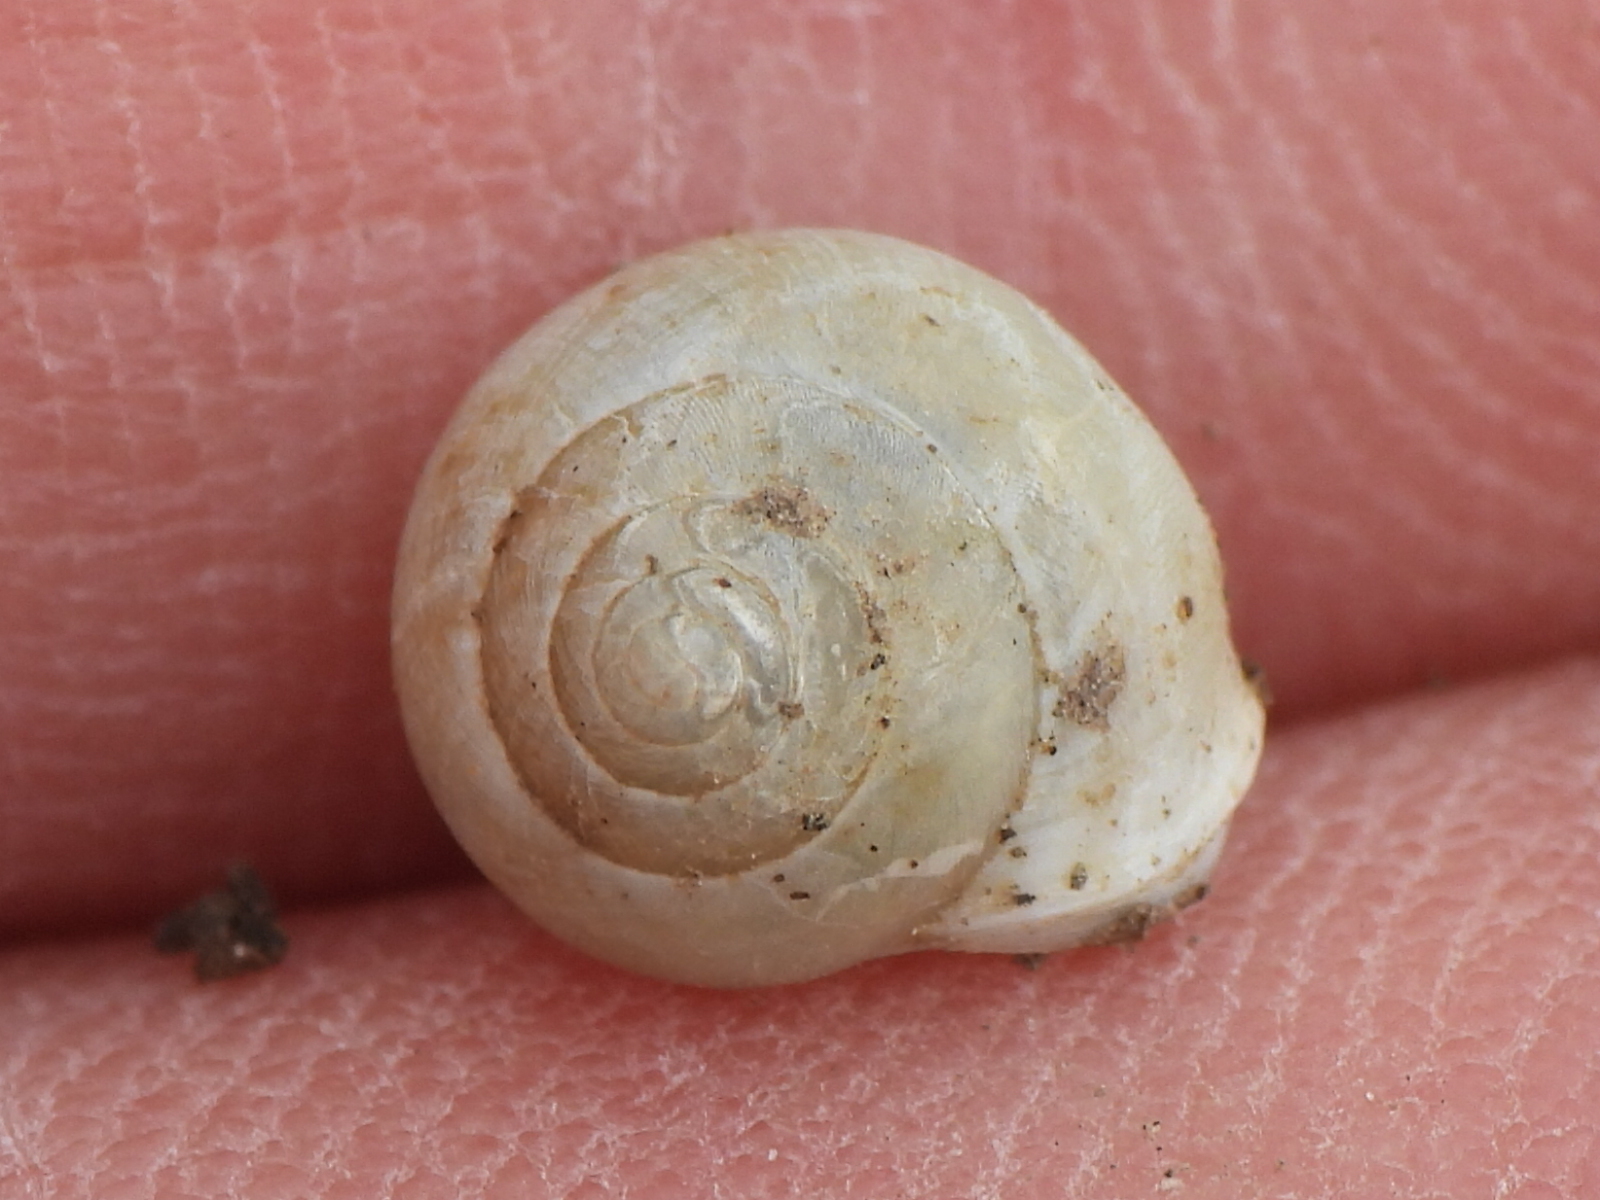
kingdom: Animalia
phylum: Mollusca
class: Gastropoda
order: Cycloneritida
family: Helicinidae
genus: Helicina
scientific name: Helicina orbiculata
